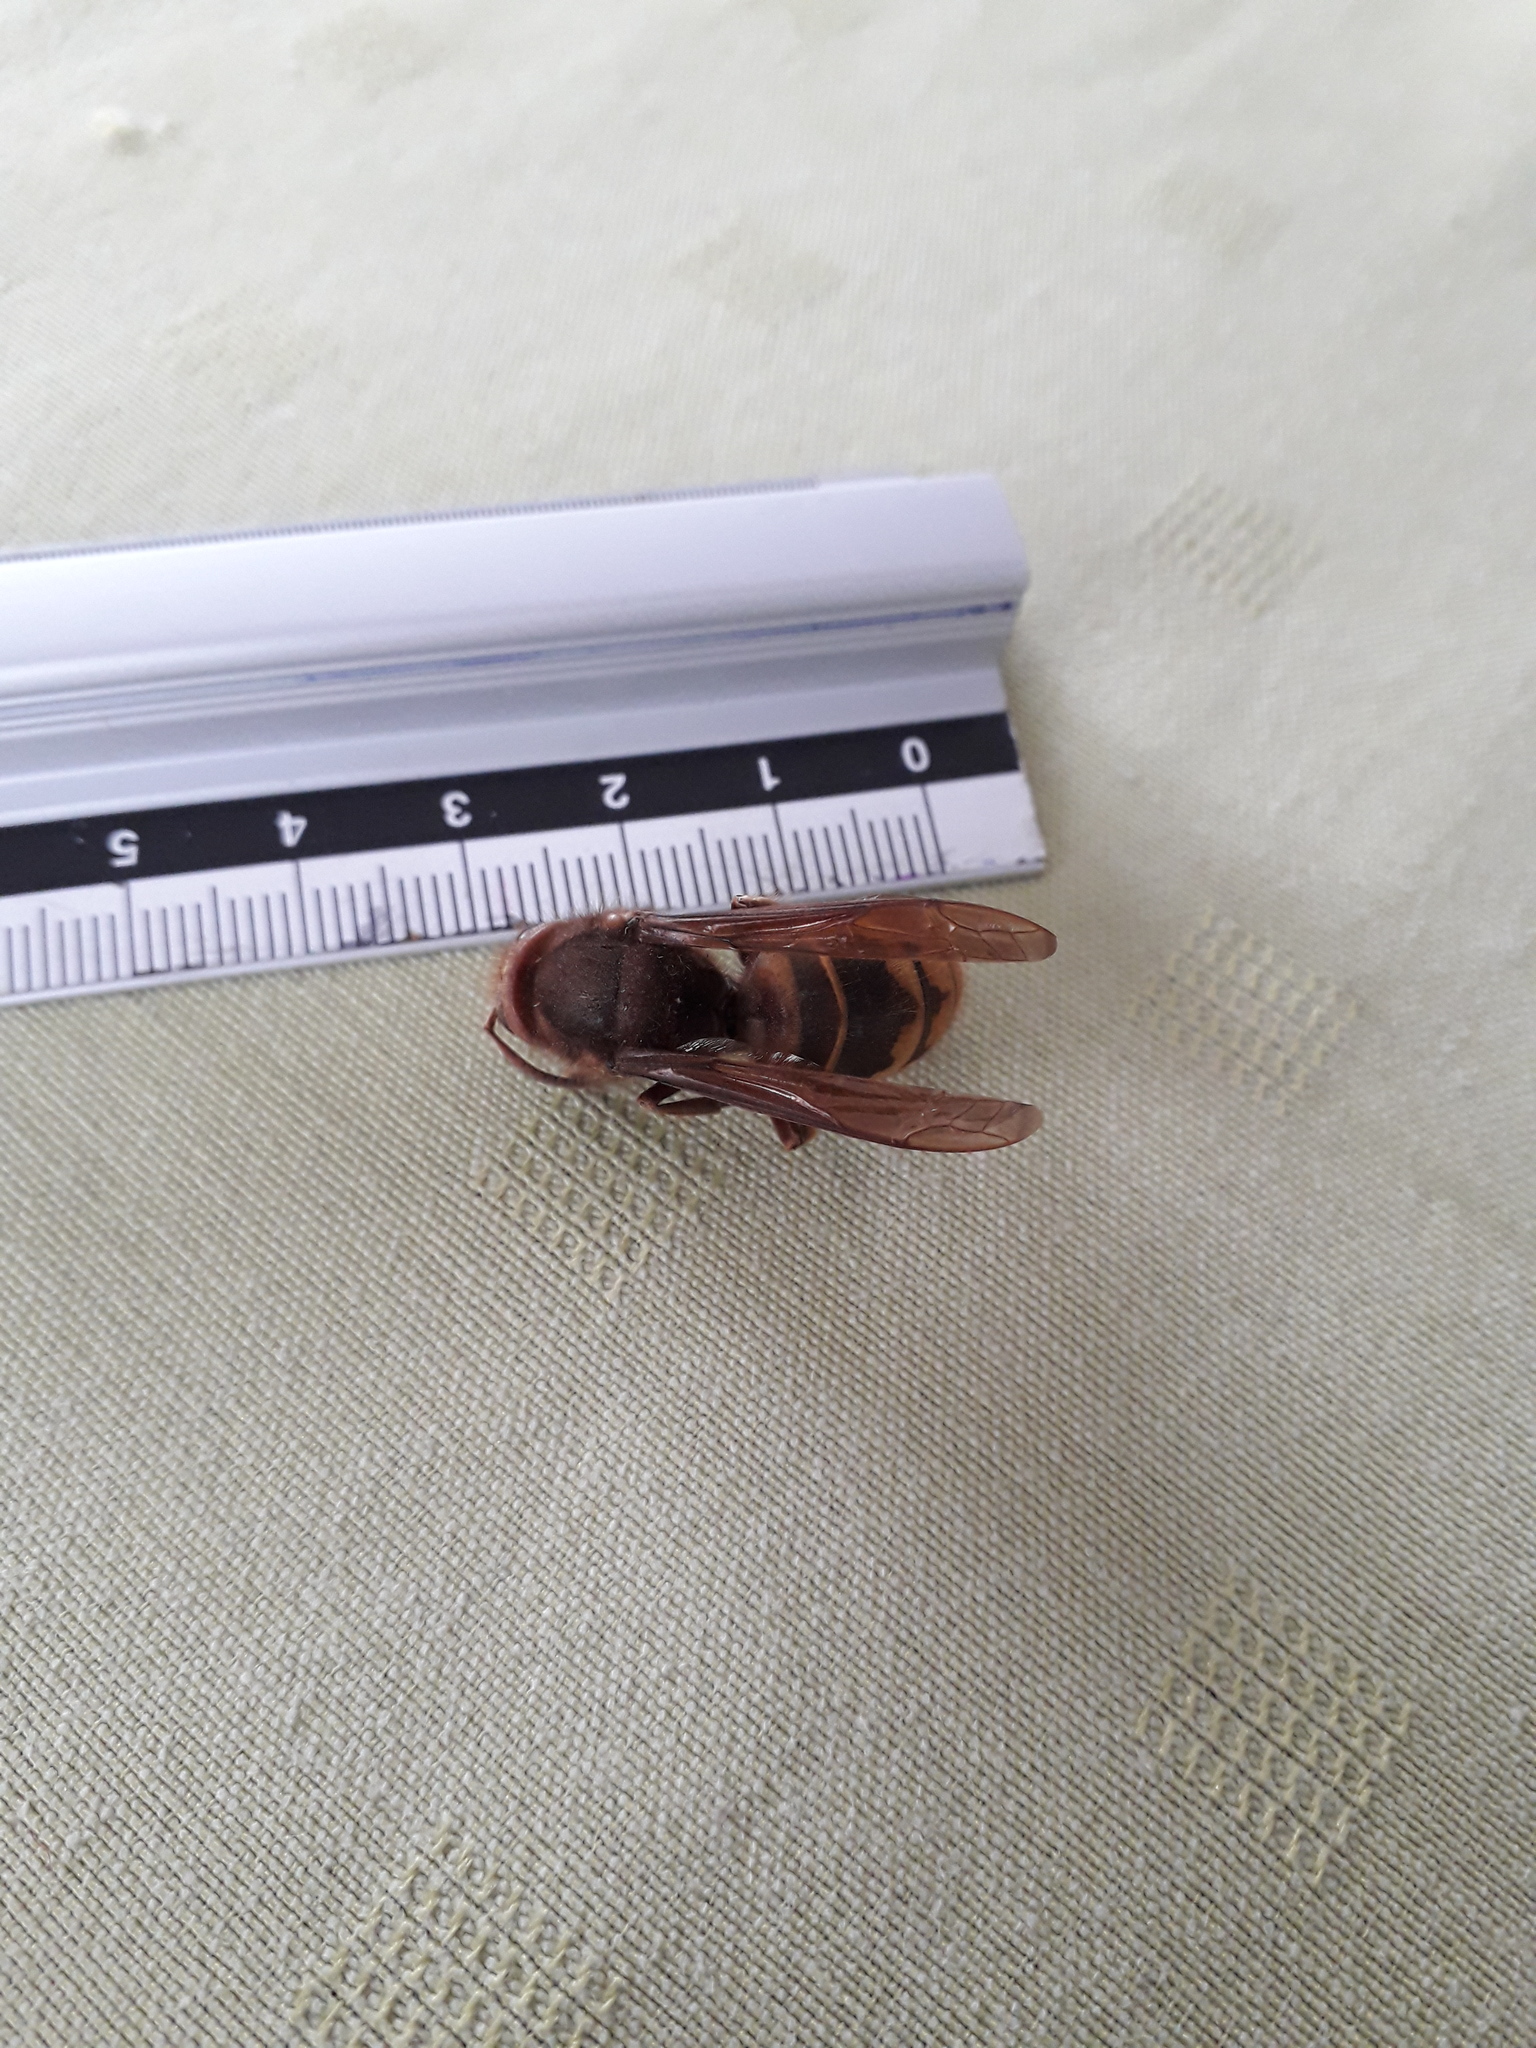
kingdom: Animalia
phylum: Arthropoda
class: Insecta
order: Hymenoptera
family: Vespidae
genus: Vespa
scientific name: Vespa crabro
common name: Hornet
